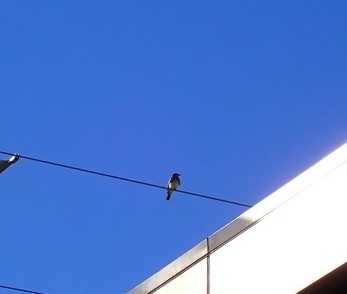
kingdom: Animalia
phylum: Chordata
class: Aves
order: Passeriformes
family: Tyrannidae
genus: Tyrannus
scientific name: Tyrannus vociferans
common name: Cassin's kingbird
